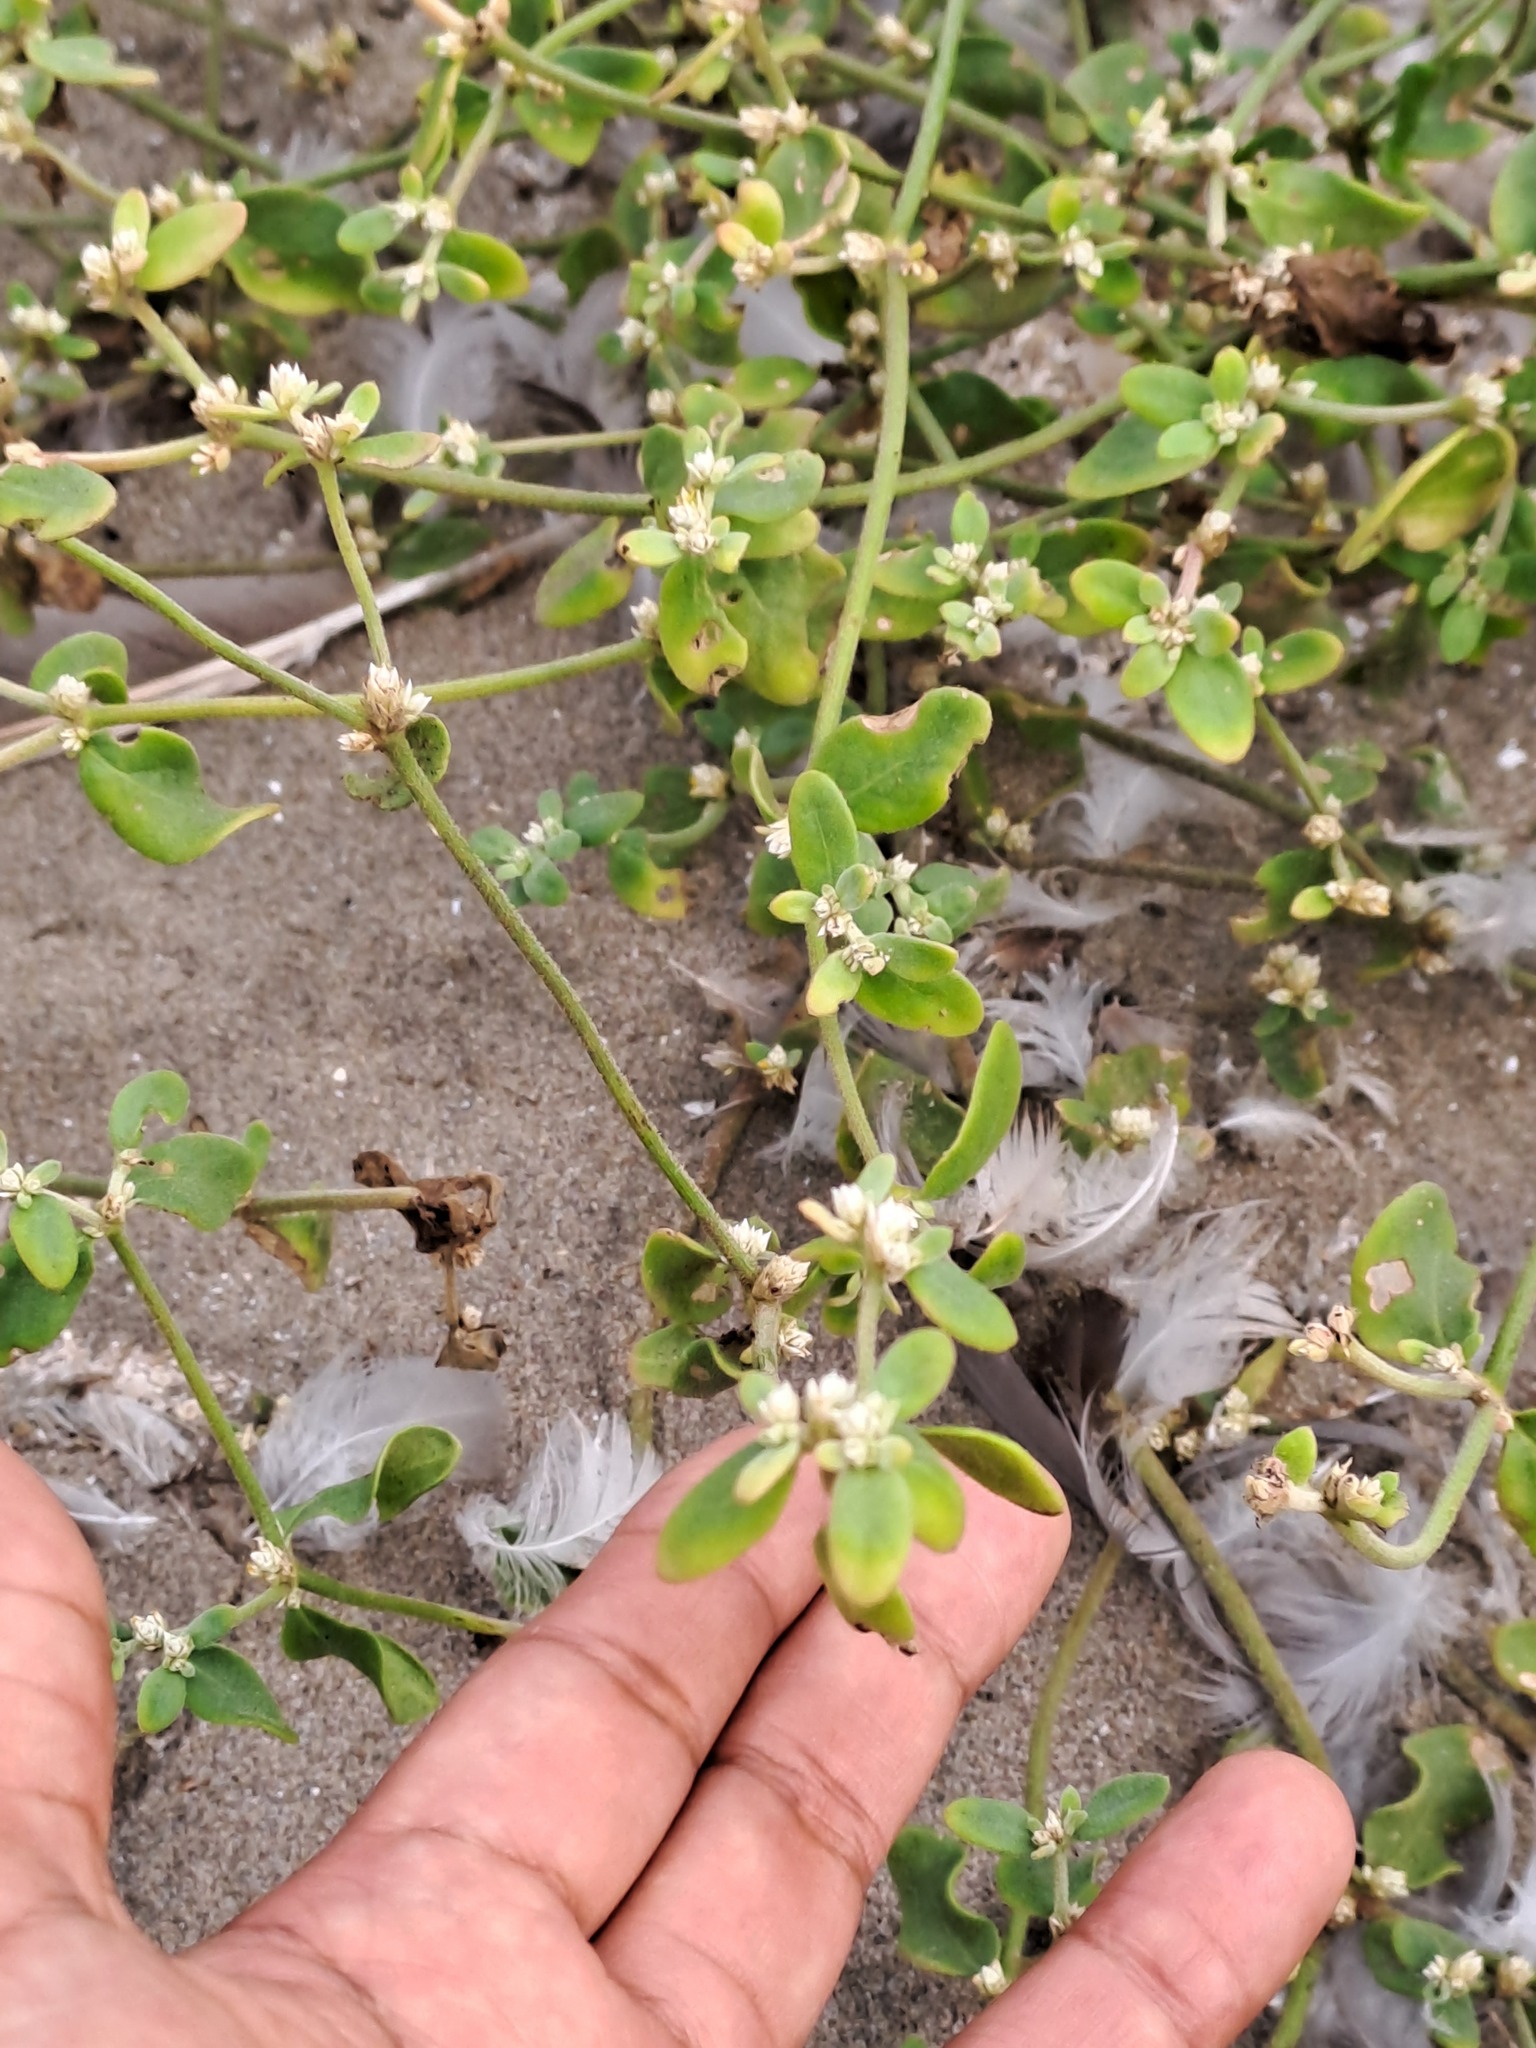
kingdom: Plantae
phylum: Tracheophyta
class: Magnoliopsida
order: Caryophyllales
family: Amaranthaceae
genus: Alternanthera
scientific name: Alternanthera halimifolia
